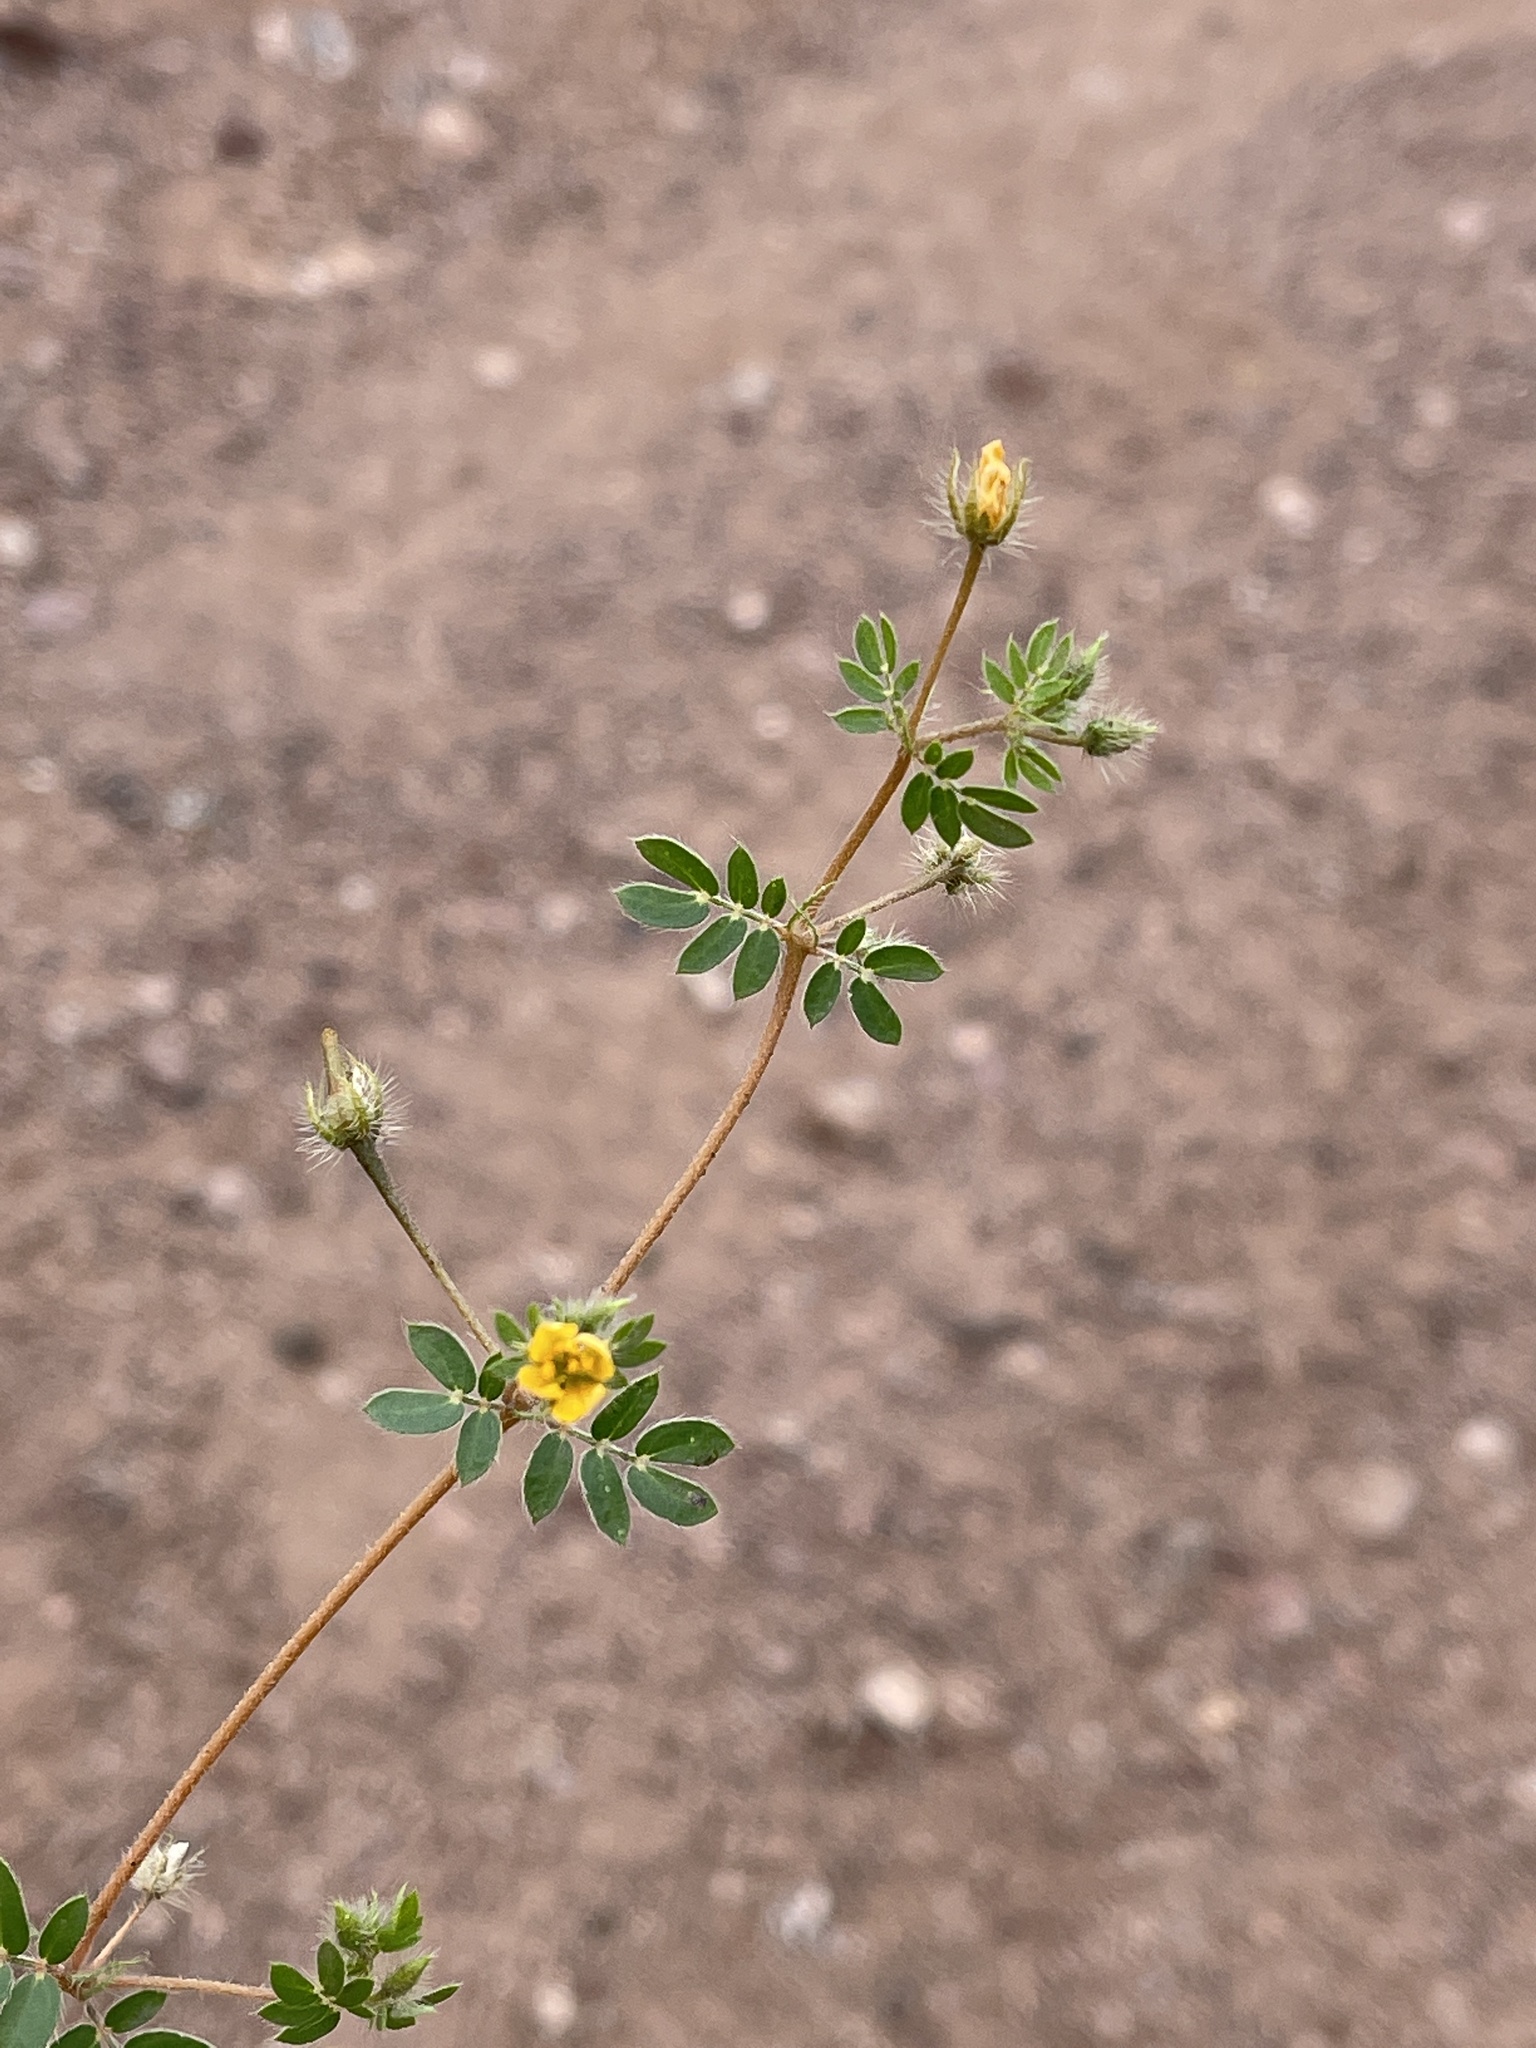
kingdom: Plantae
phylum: Tracheophyta
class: Magnoliopsida
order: Zygophyllales
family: Zygophyllaceae
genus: Kallstroemia
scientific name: Kallstroemia parviflora
